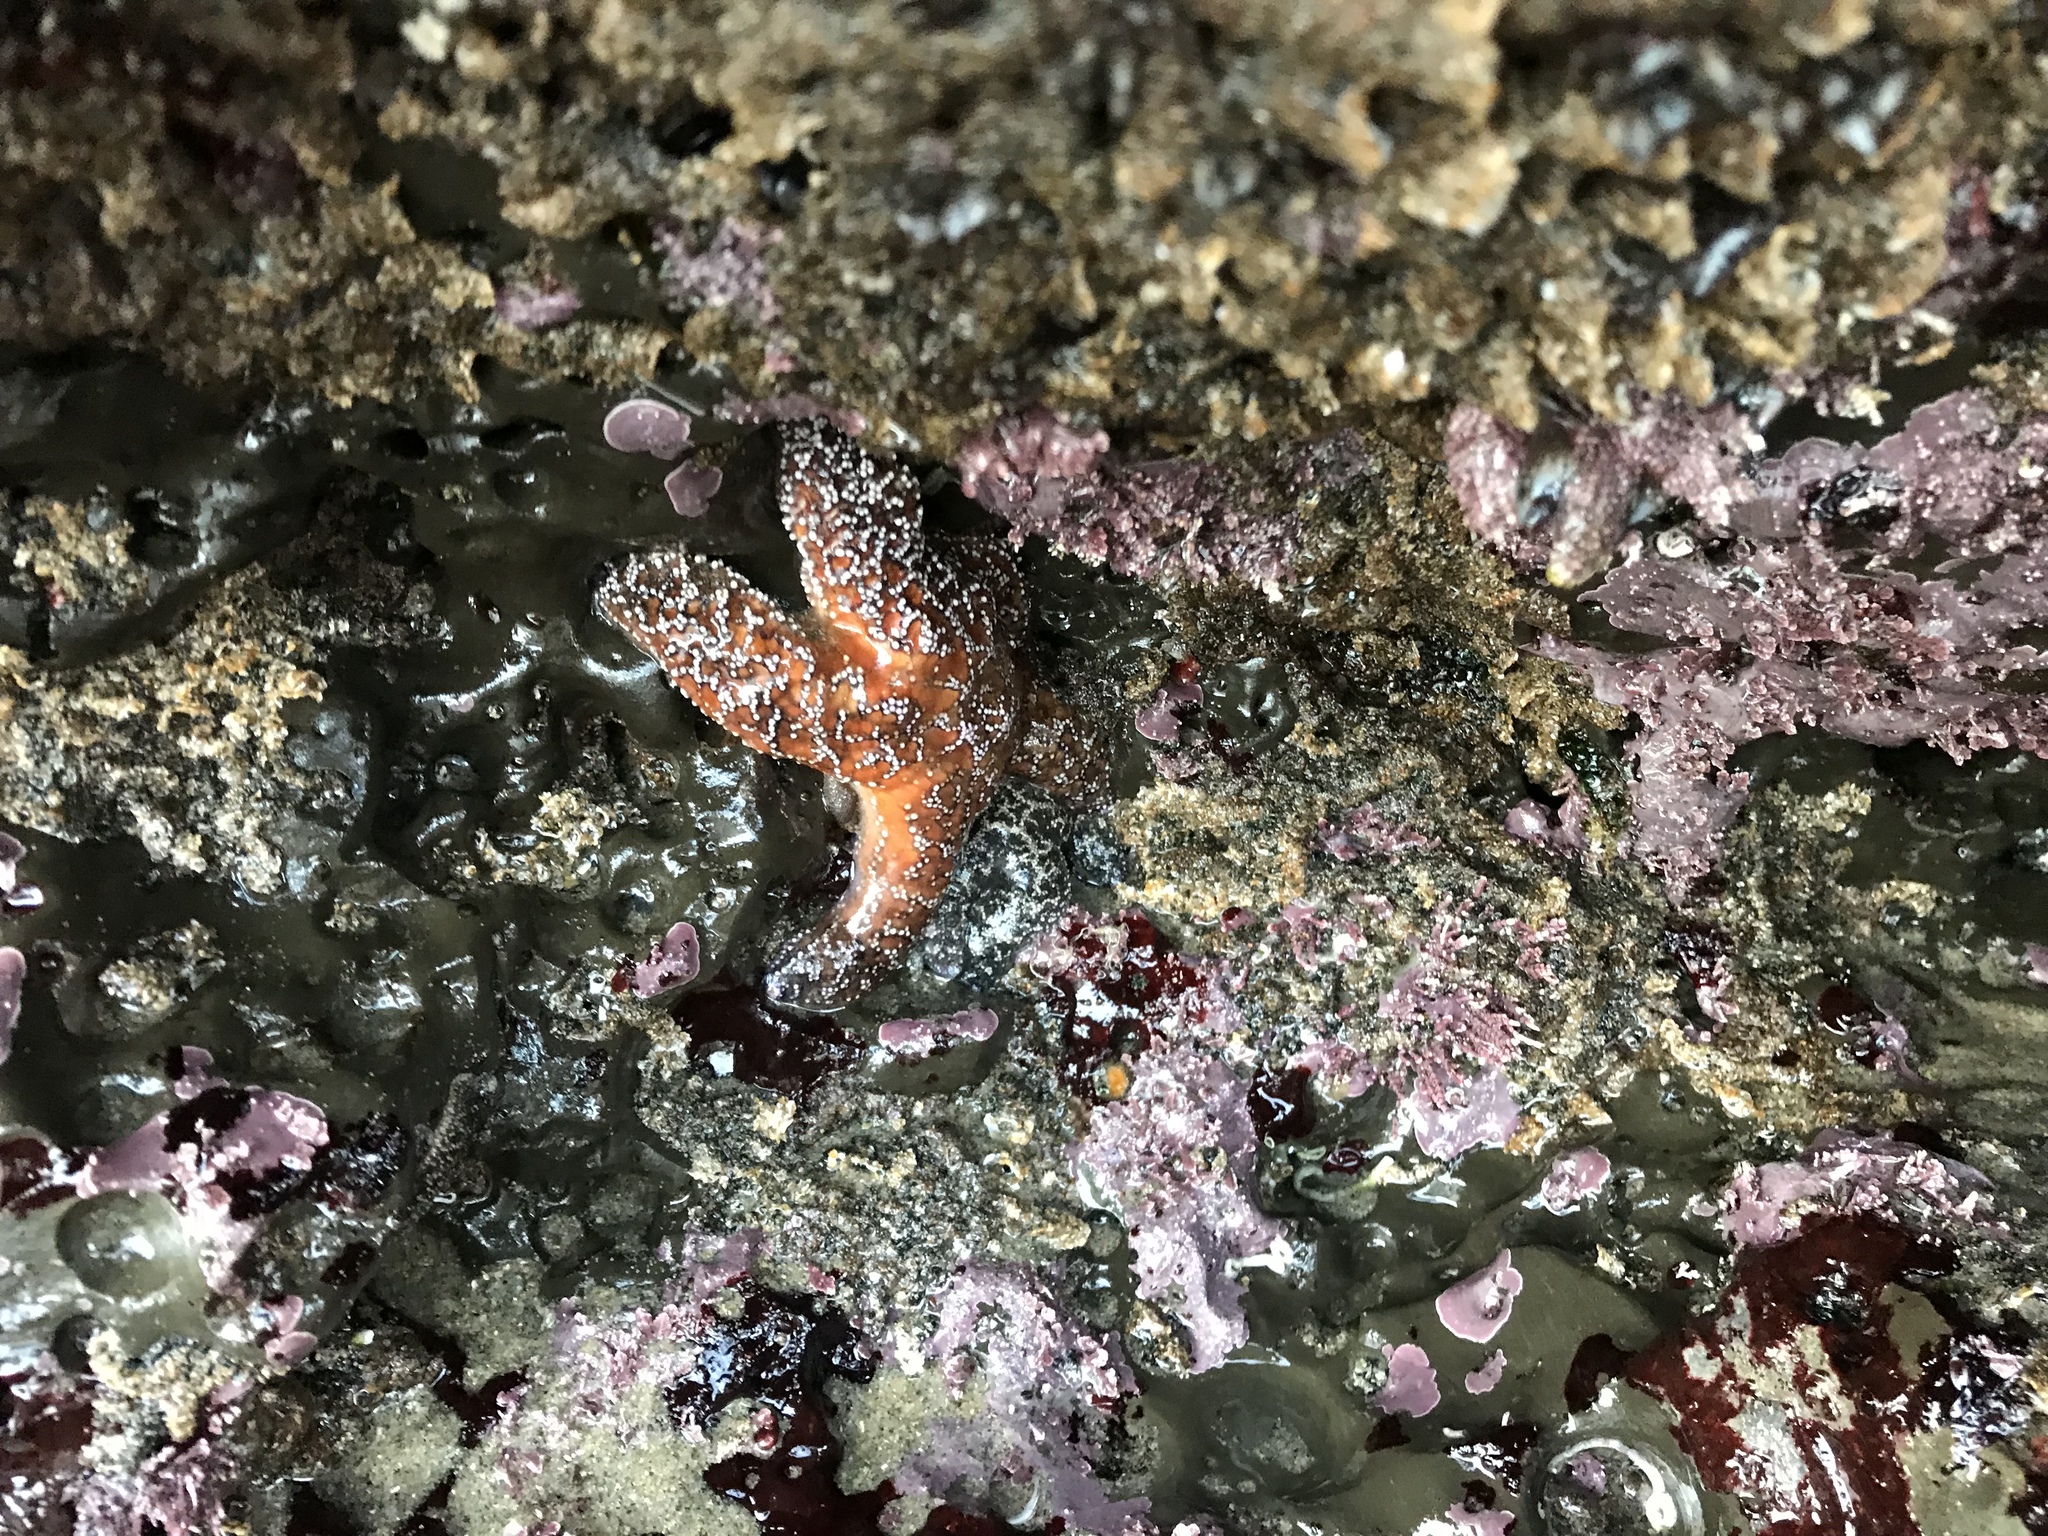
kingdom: Animalia
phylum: Echinodermata
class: Asteroidea
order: Forcipulatida
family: Asteriidae
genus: Pisaster
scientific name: Pisaster ochraceus
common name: Ochre stars
